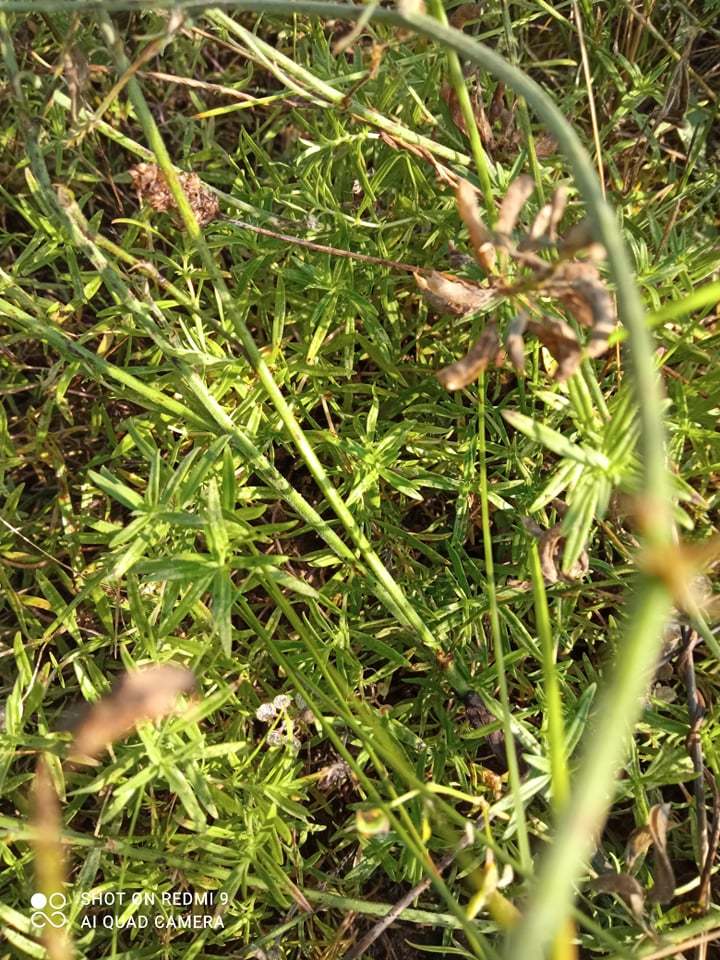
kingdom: Plantae
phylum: Tracheophyta
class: Magnoliopsida
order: Lamiales
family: Lamiaceae
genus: Thymus
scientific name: Thymus pannonicus
